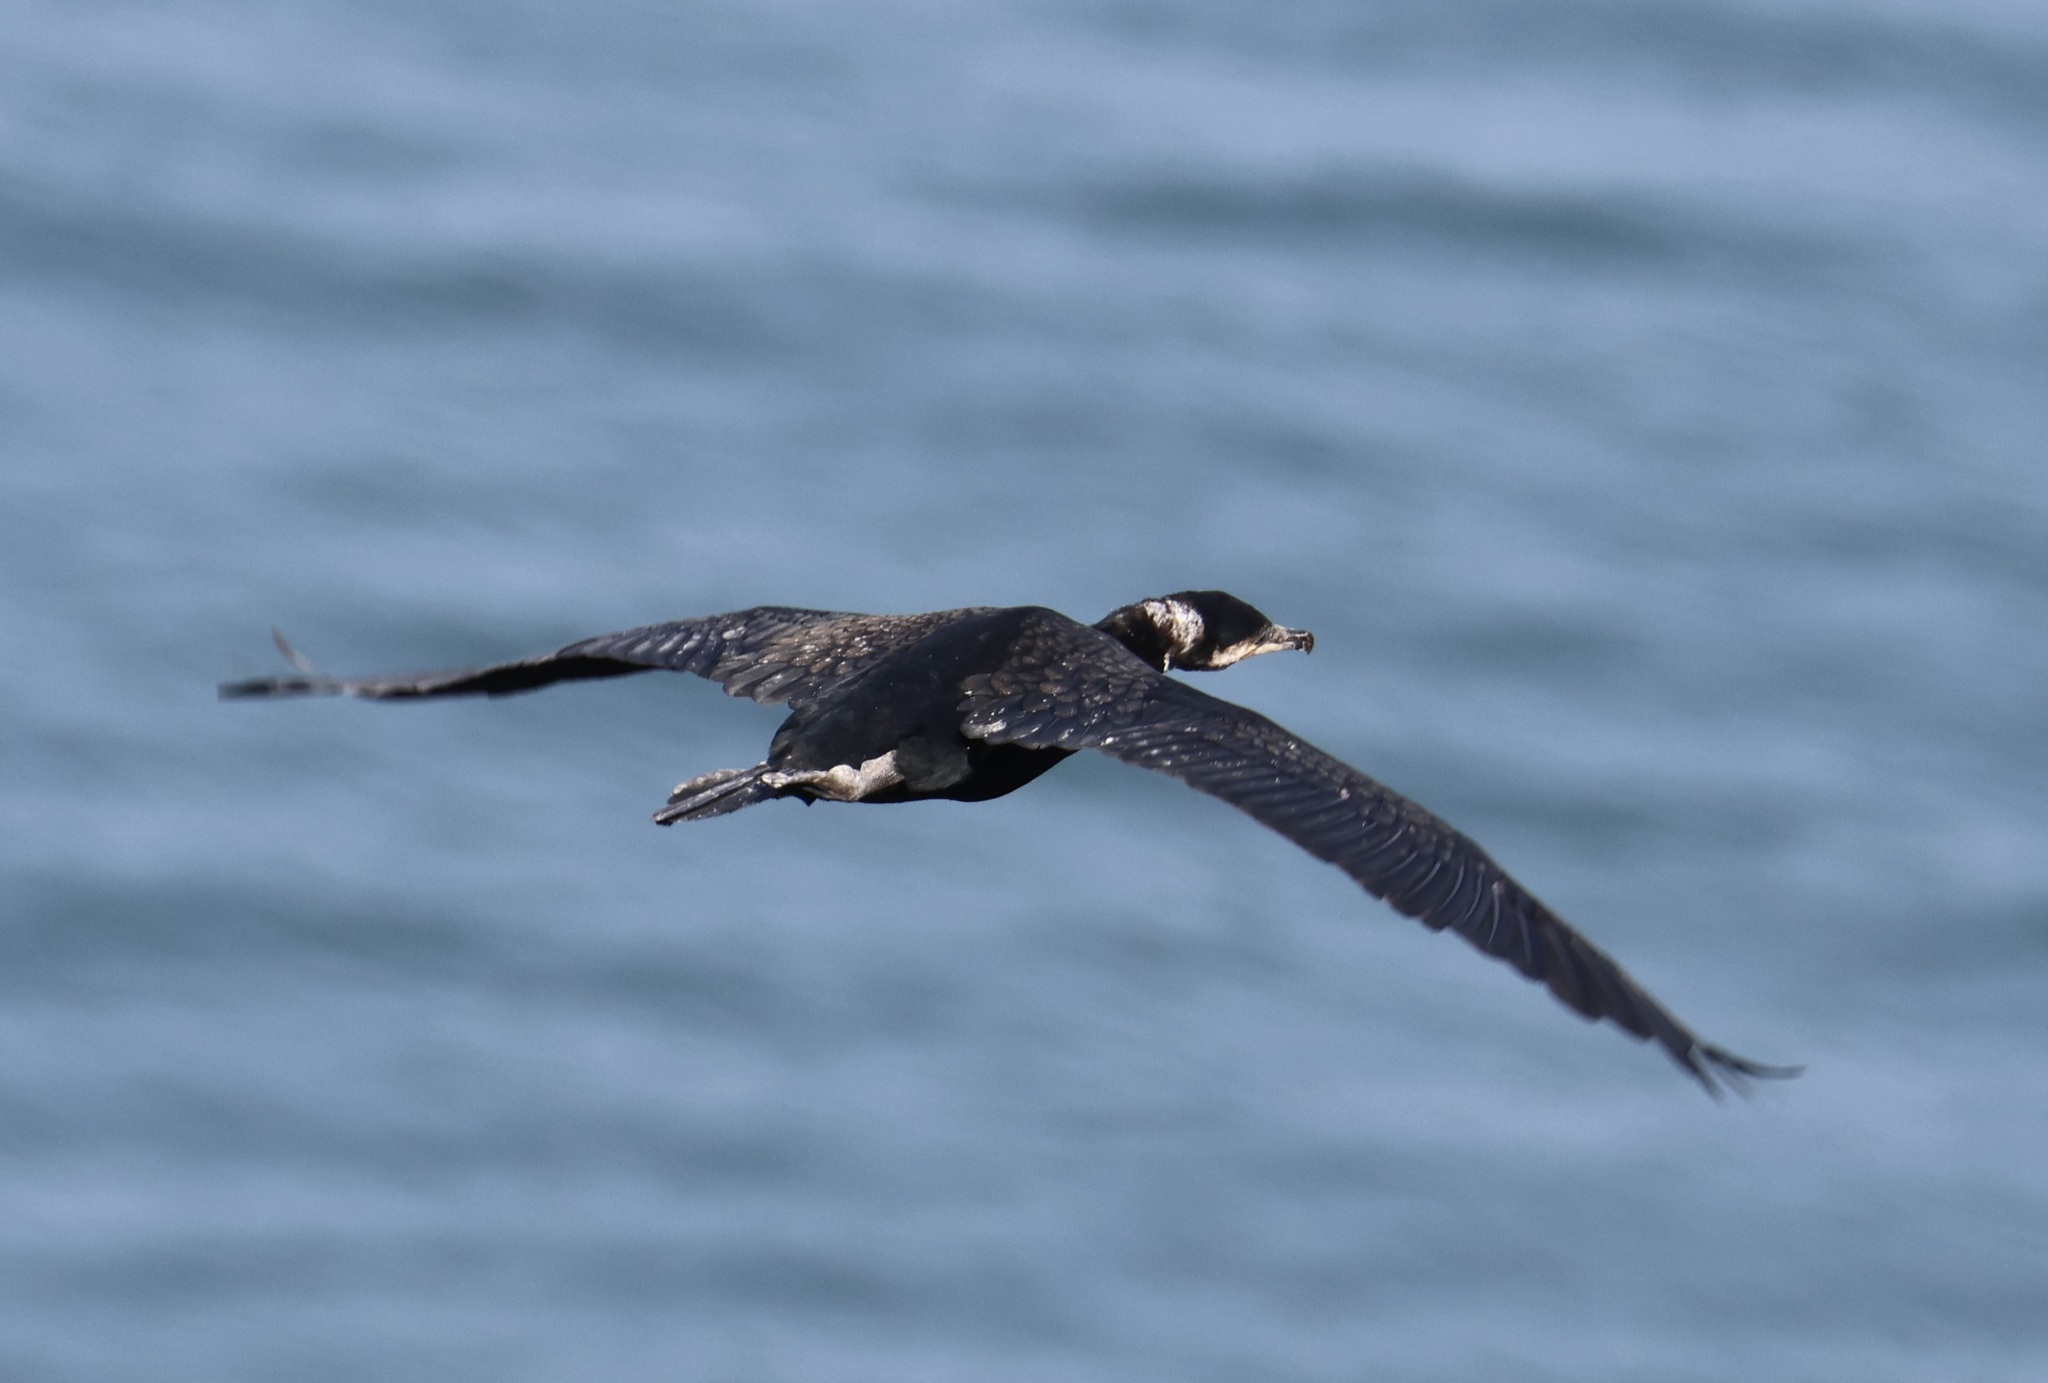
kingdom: Animalia
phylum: Chordata
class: Aves
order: Suliformes
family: Phalacrocoracidae
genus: Phalacrocorax
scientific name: Phalacrocorax carbo
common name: Great cormorant
